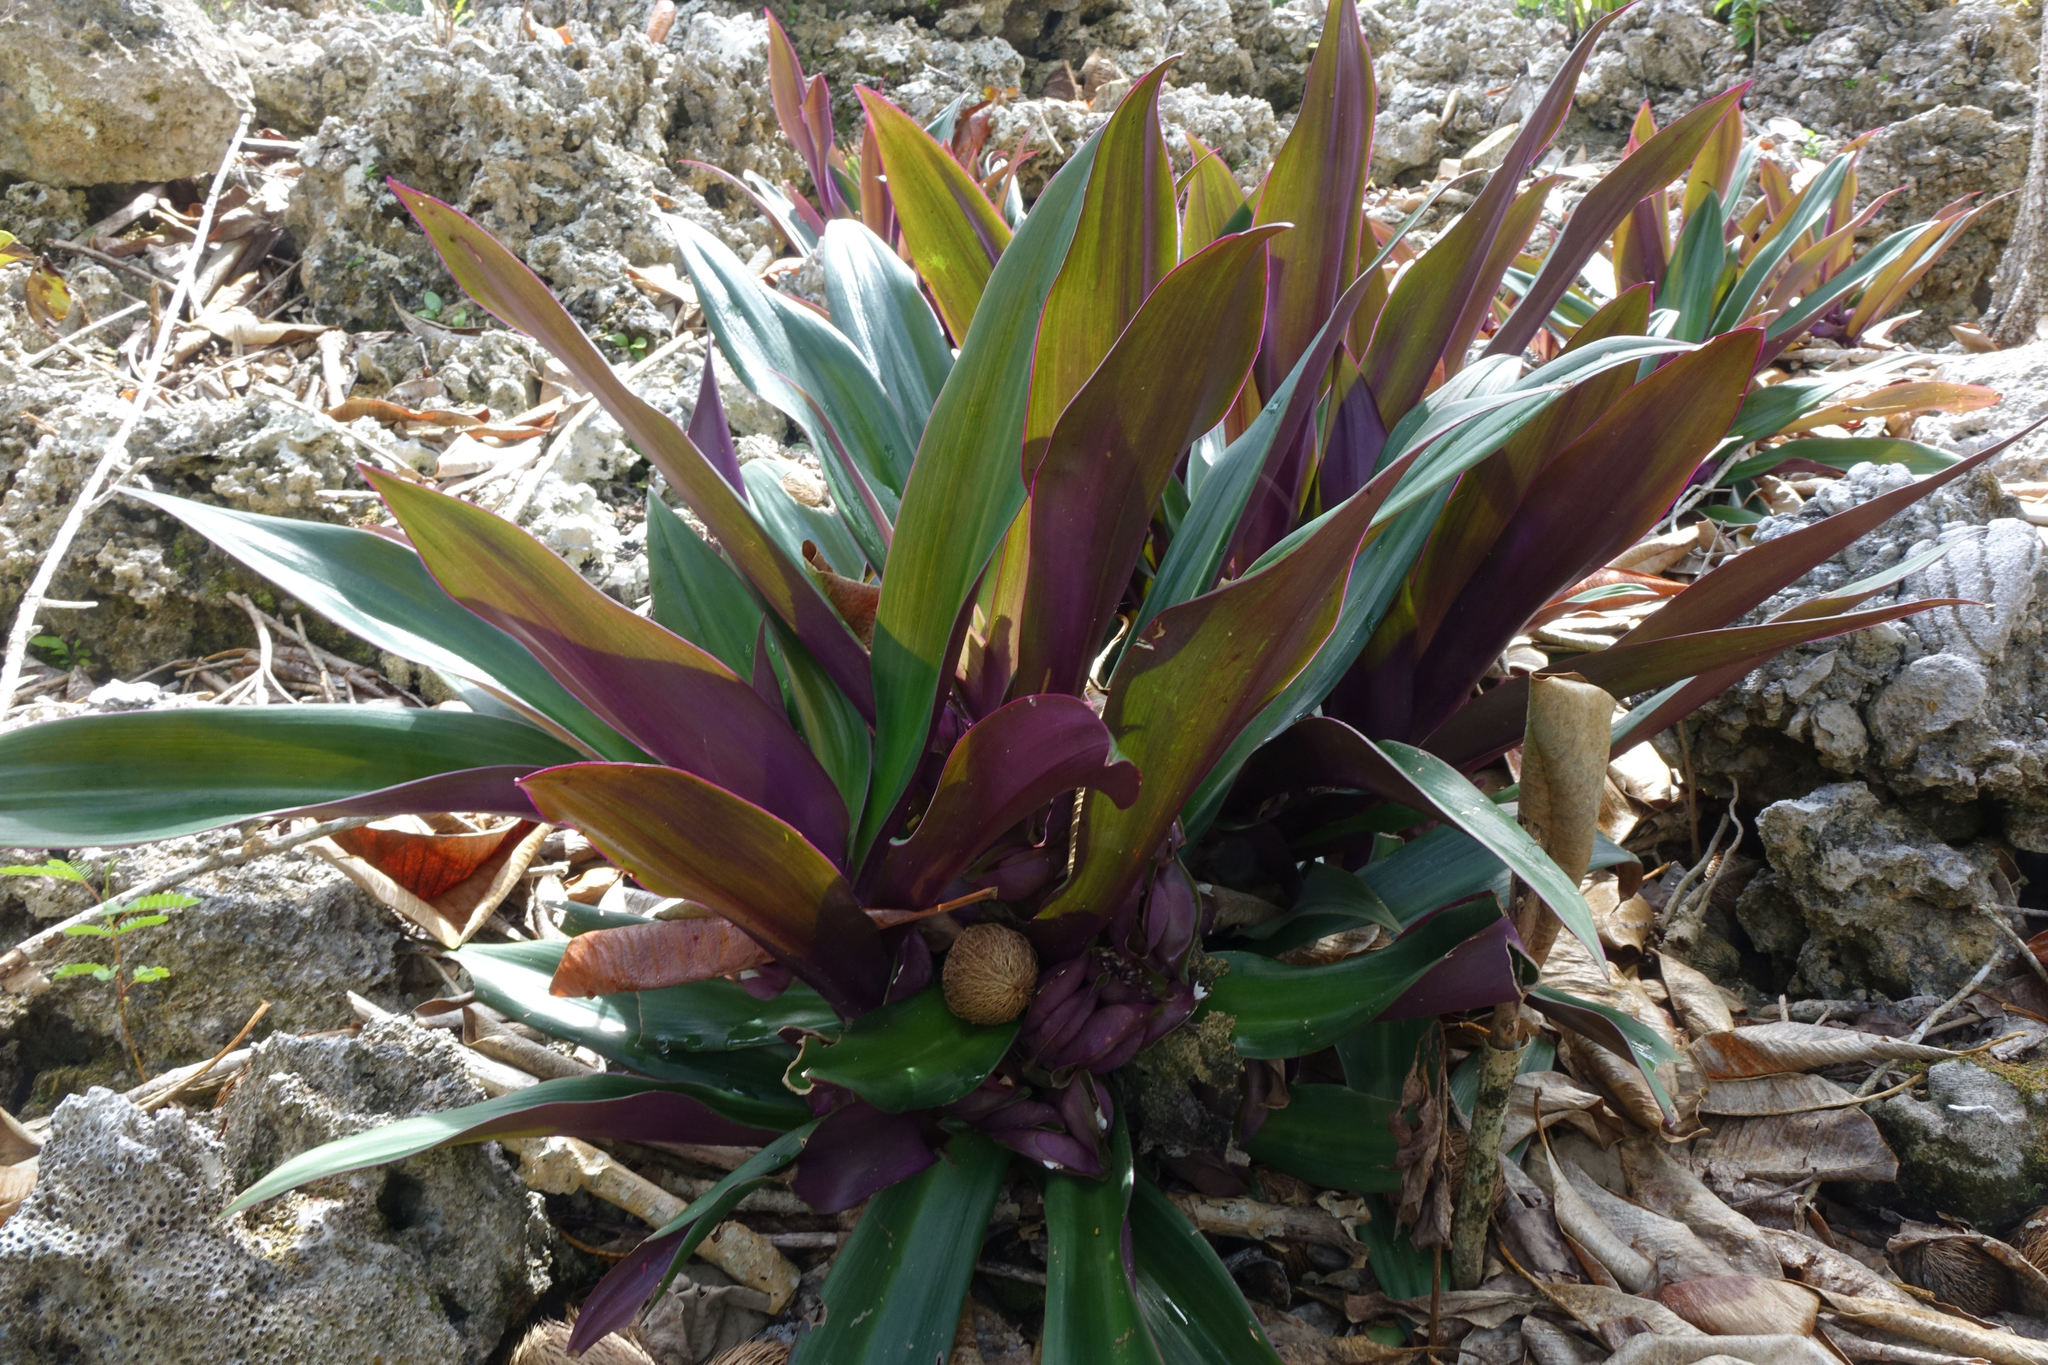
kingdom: Plantae
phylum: Tracheophyta
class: Liliopsida
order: Commelinales
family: Commelinaceae
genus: Tradescantia
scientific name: Tradescantia spathacea
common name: Boatlily
